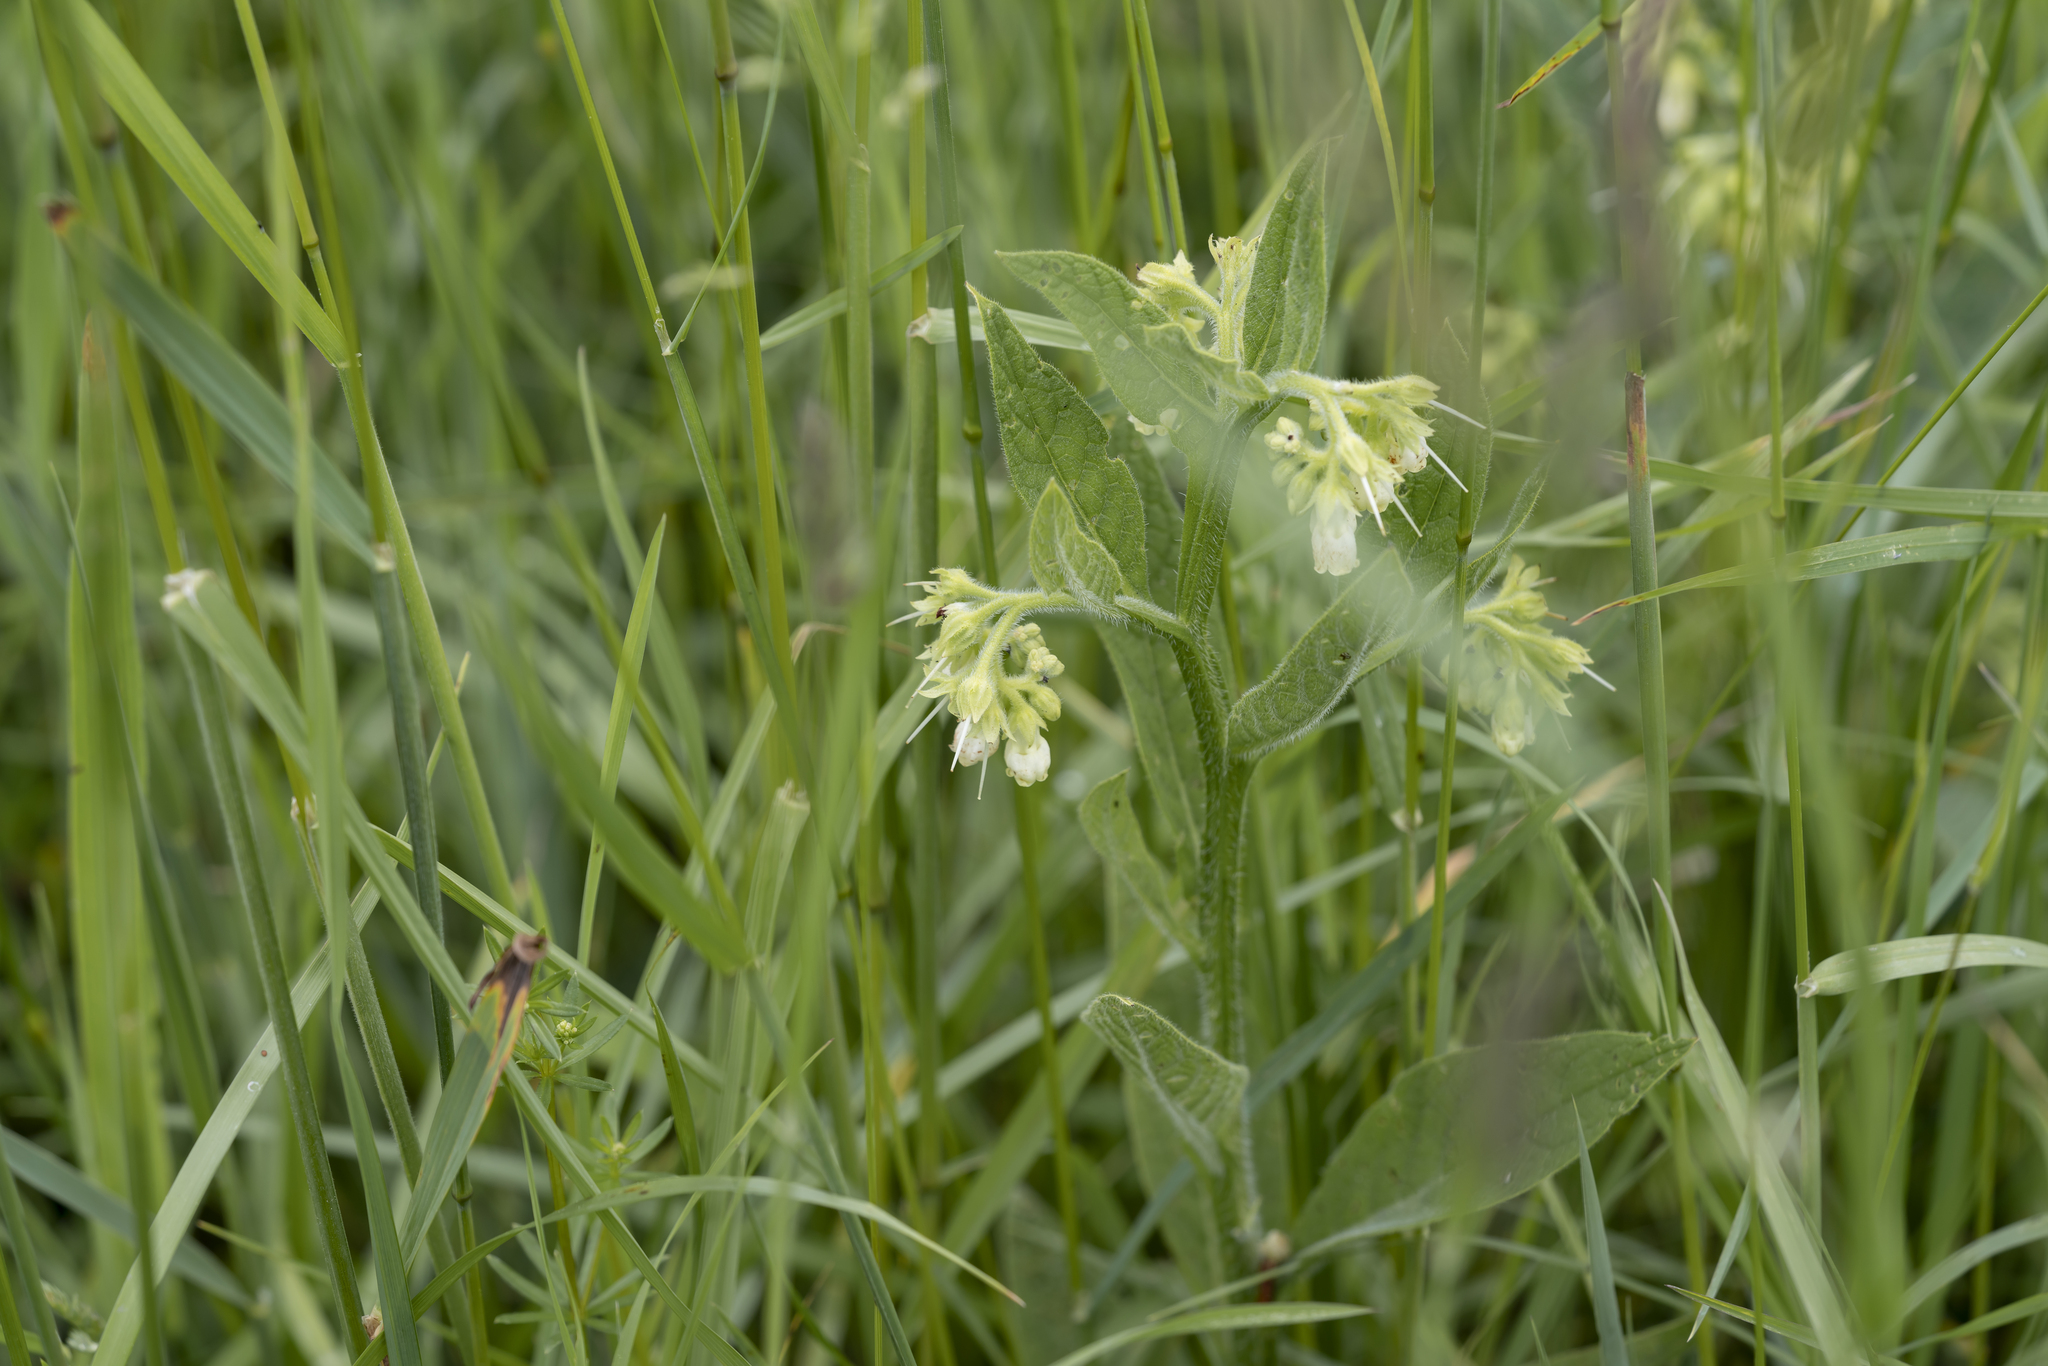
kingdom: Plantae
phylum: Tracheophyta
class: Magnoliopsida
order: Boraginales
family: Boraginaceae
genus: Symphytum
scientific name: Symphytum officinale
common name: Common comfrey
